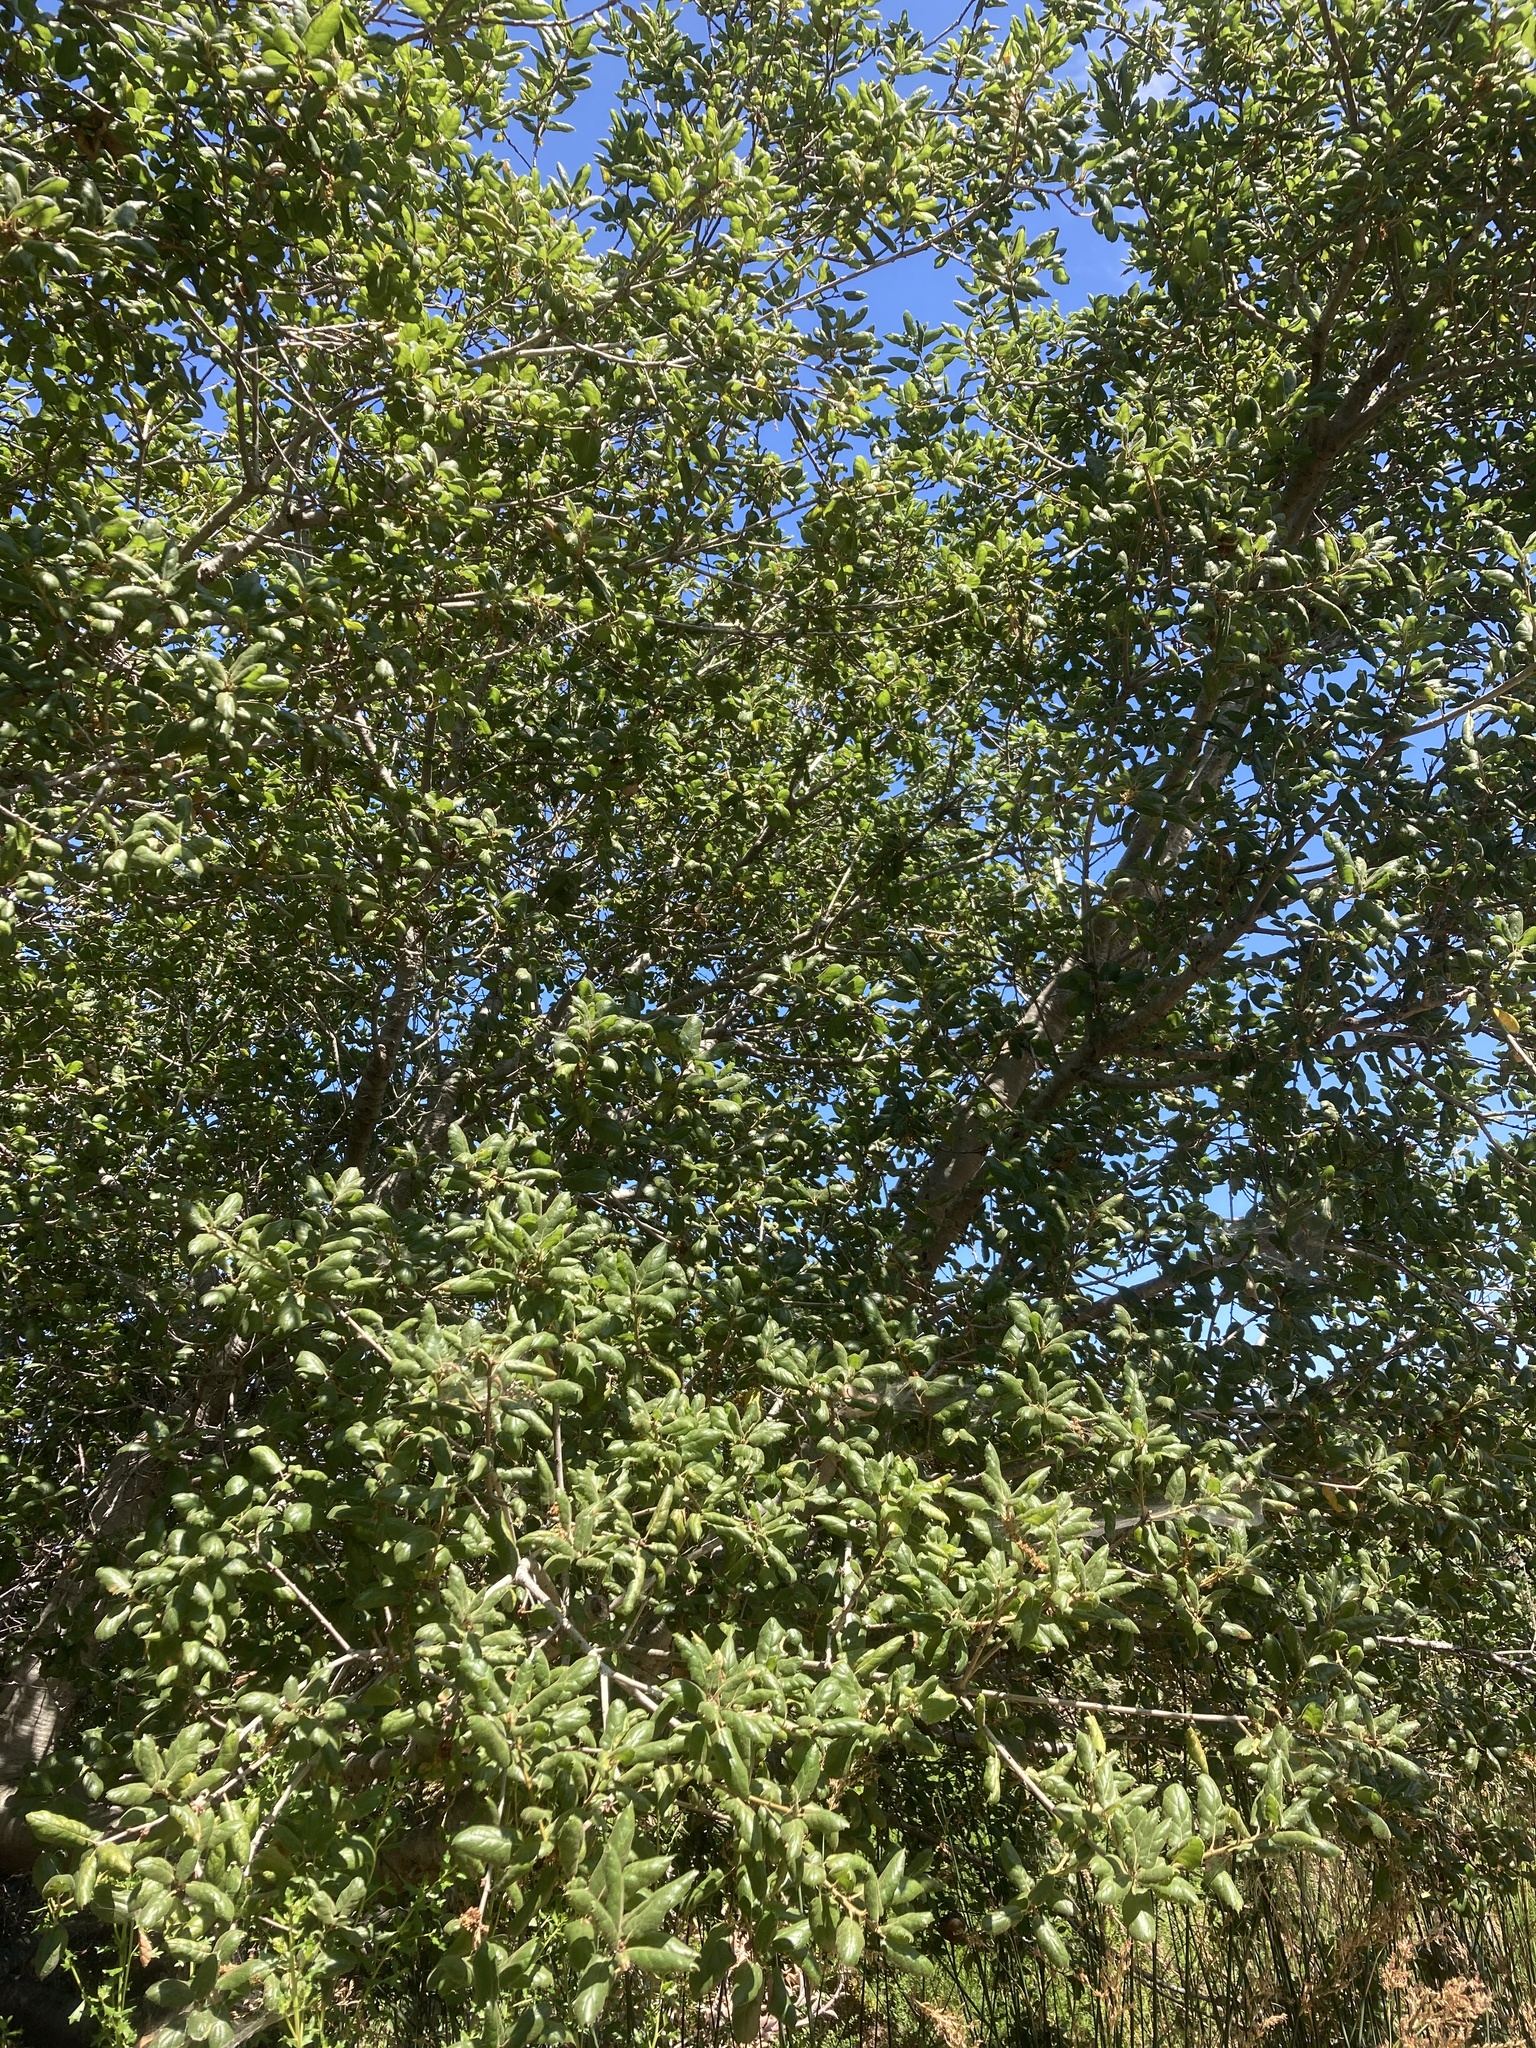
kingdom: Plantae
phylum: Tracheophyta
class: Magnoliopsida
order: Fagales
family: Fagaceae
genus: Quercus
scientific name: Quercus agrifolia
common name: California live oak
